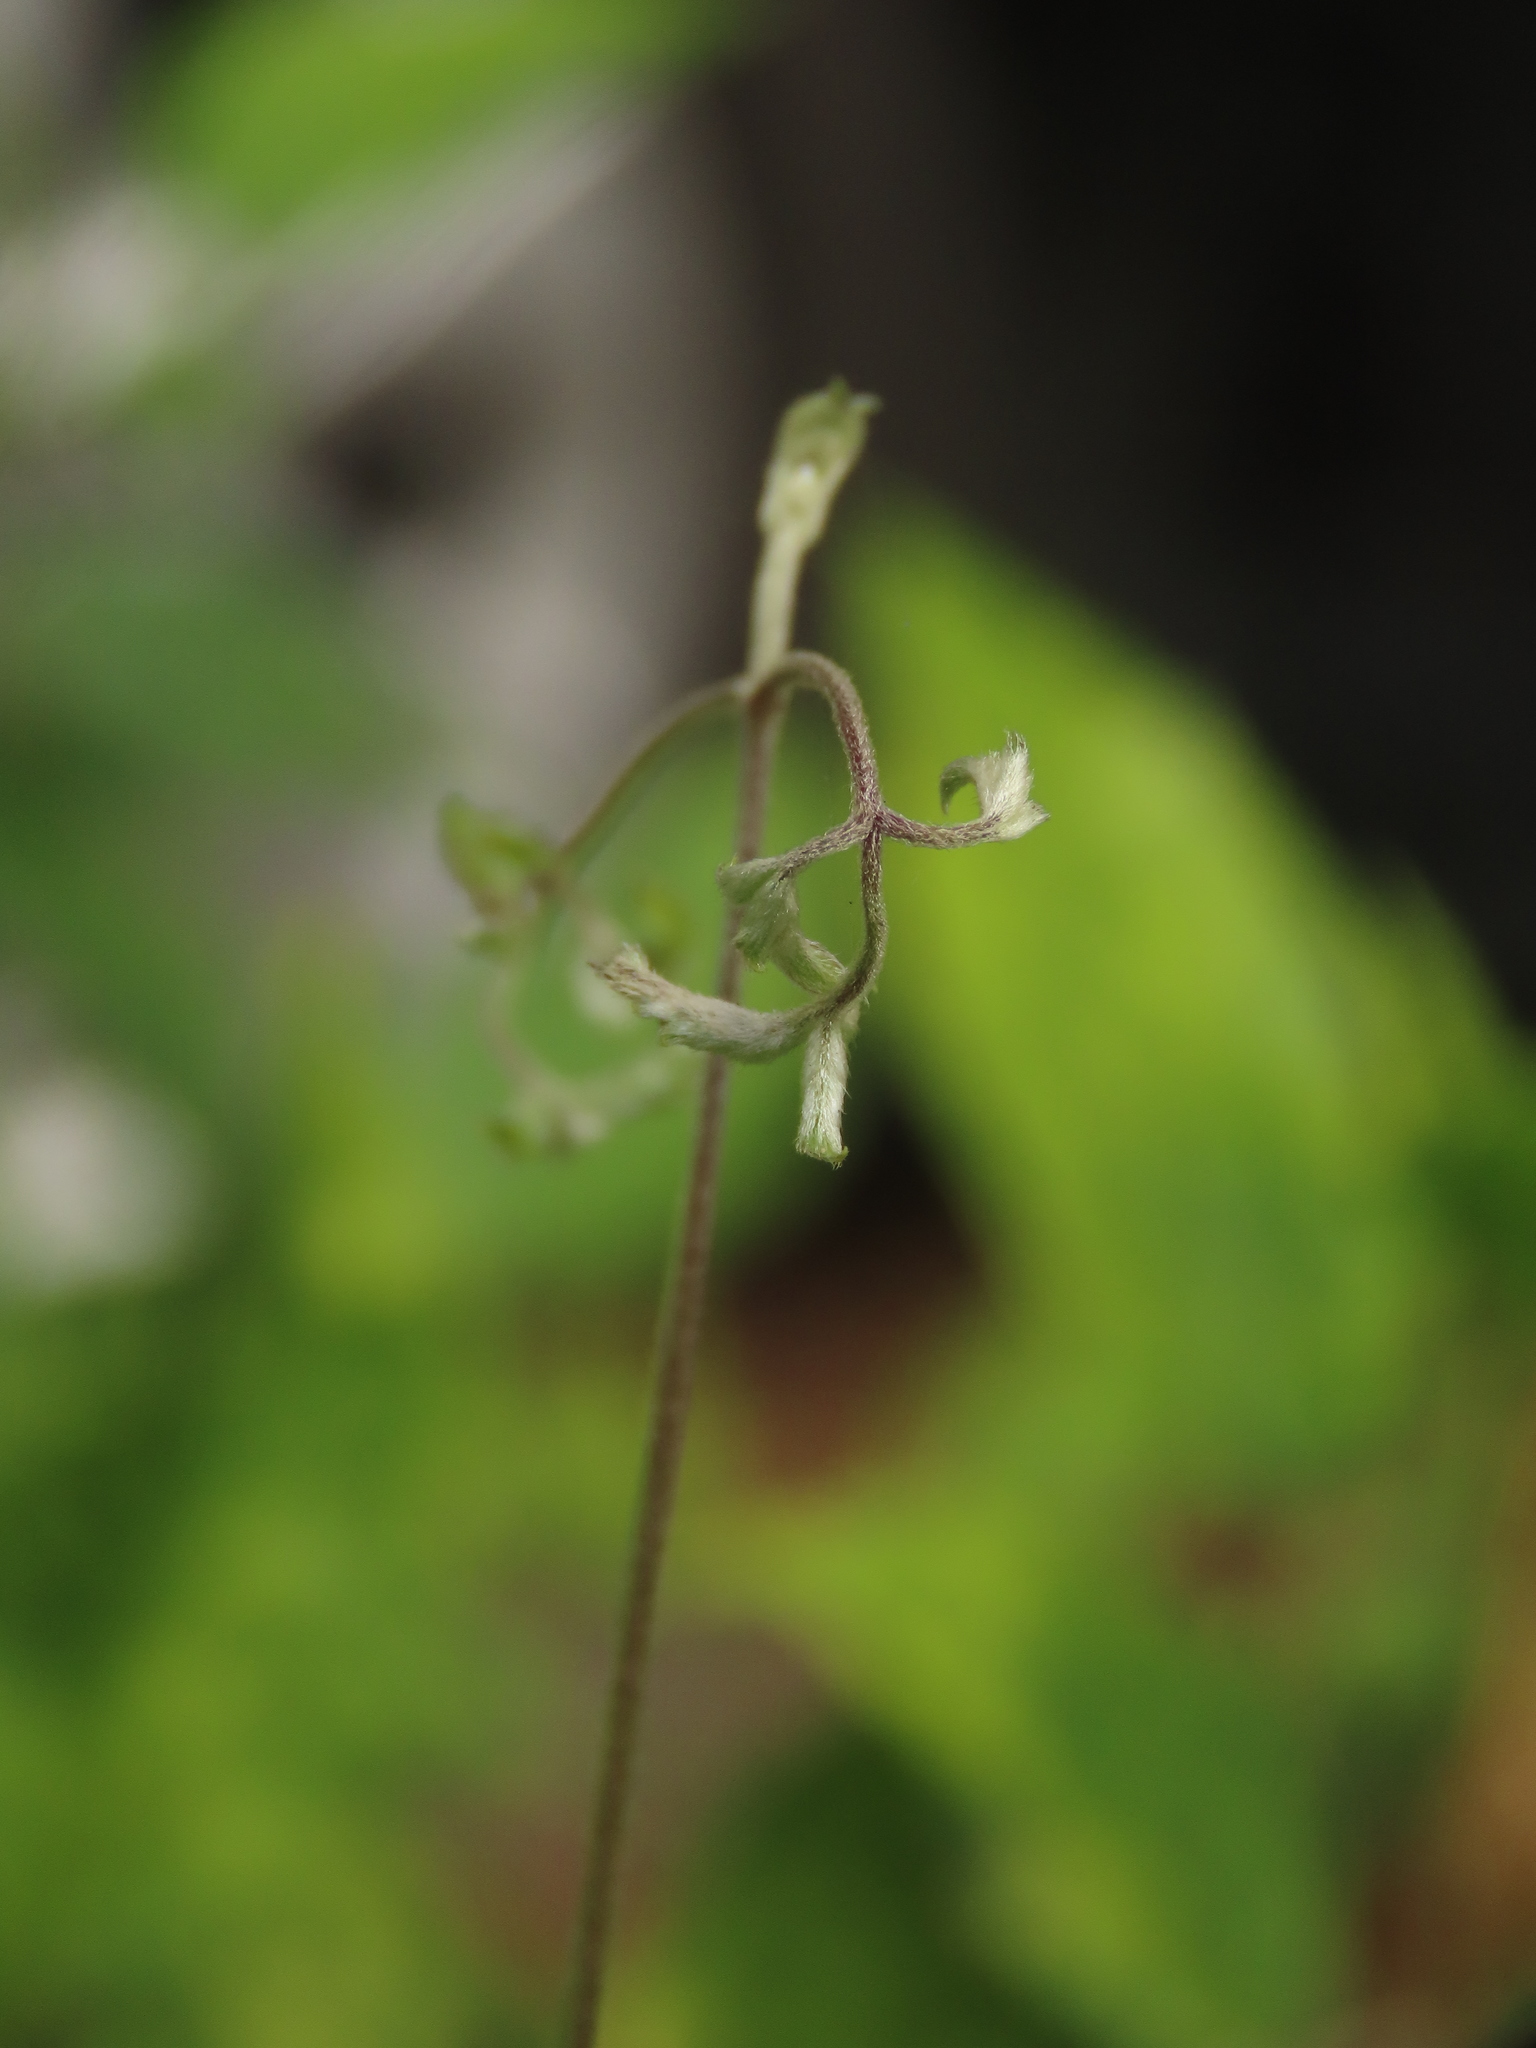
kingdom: Plantae
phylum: Tracheophyta
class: Magnoliopsida
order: Ranunculales
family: Ranunculaceae
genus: Clematis
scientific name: Clematis gouriana
